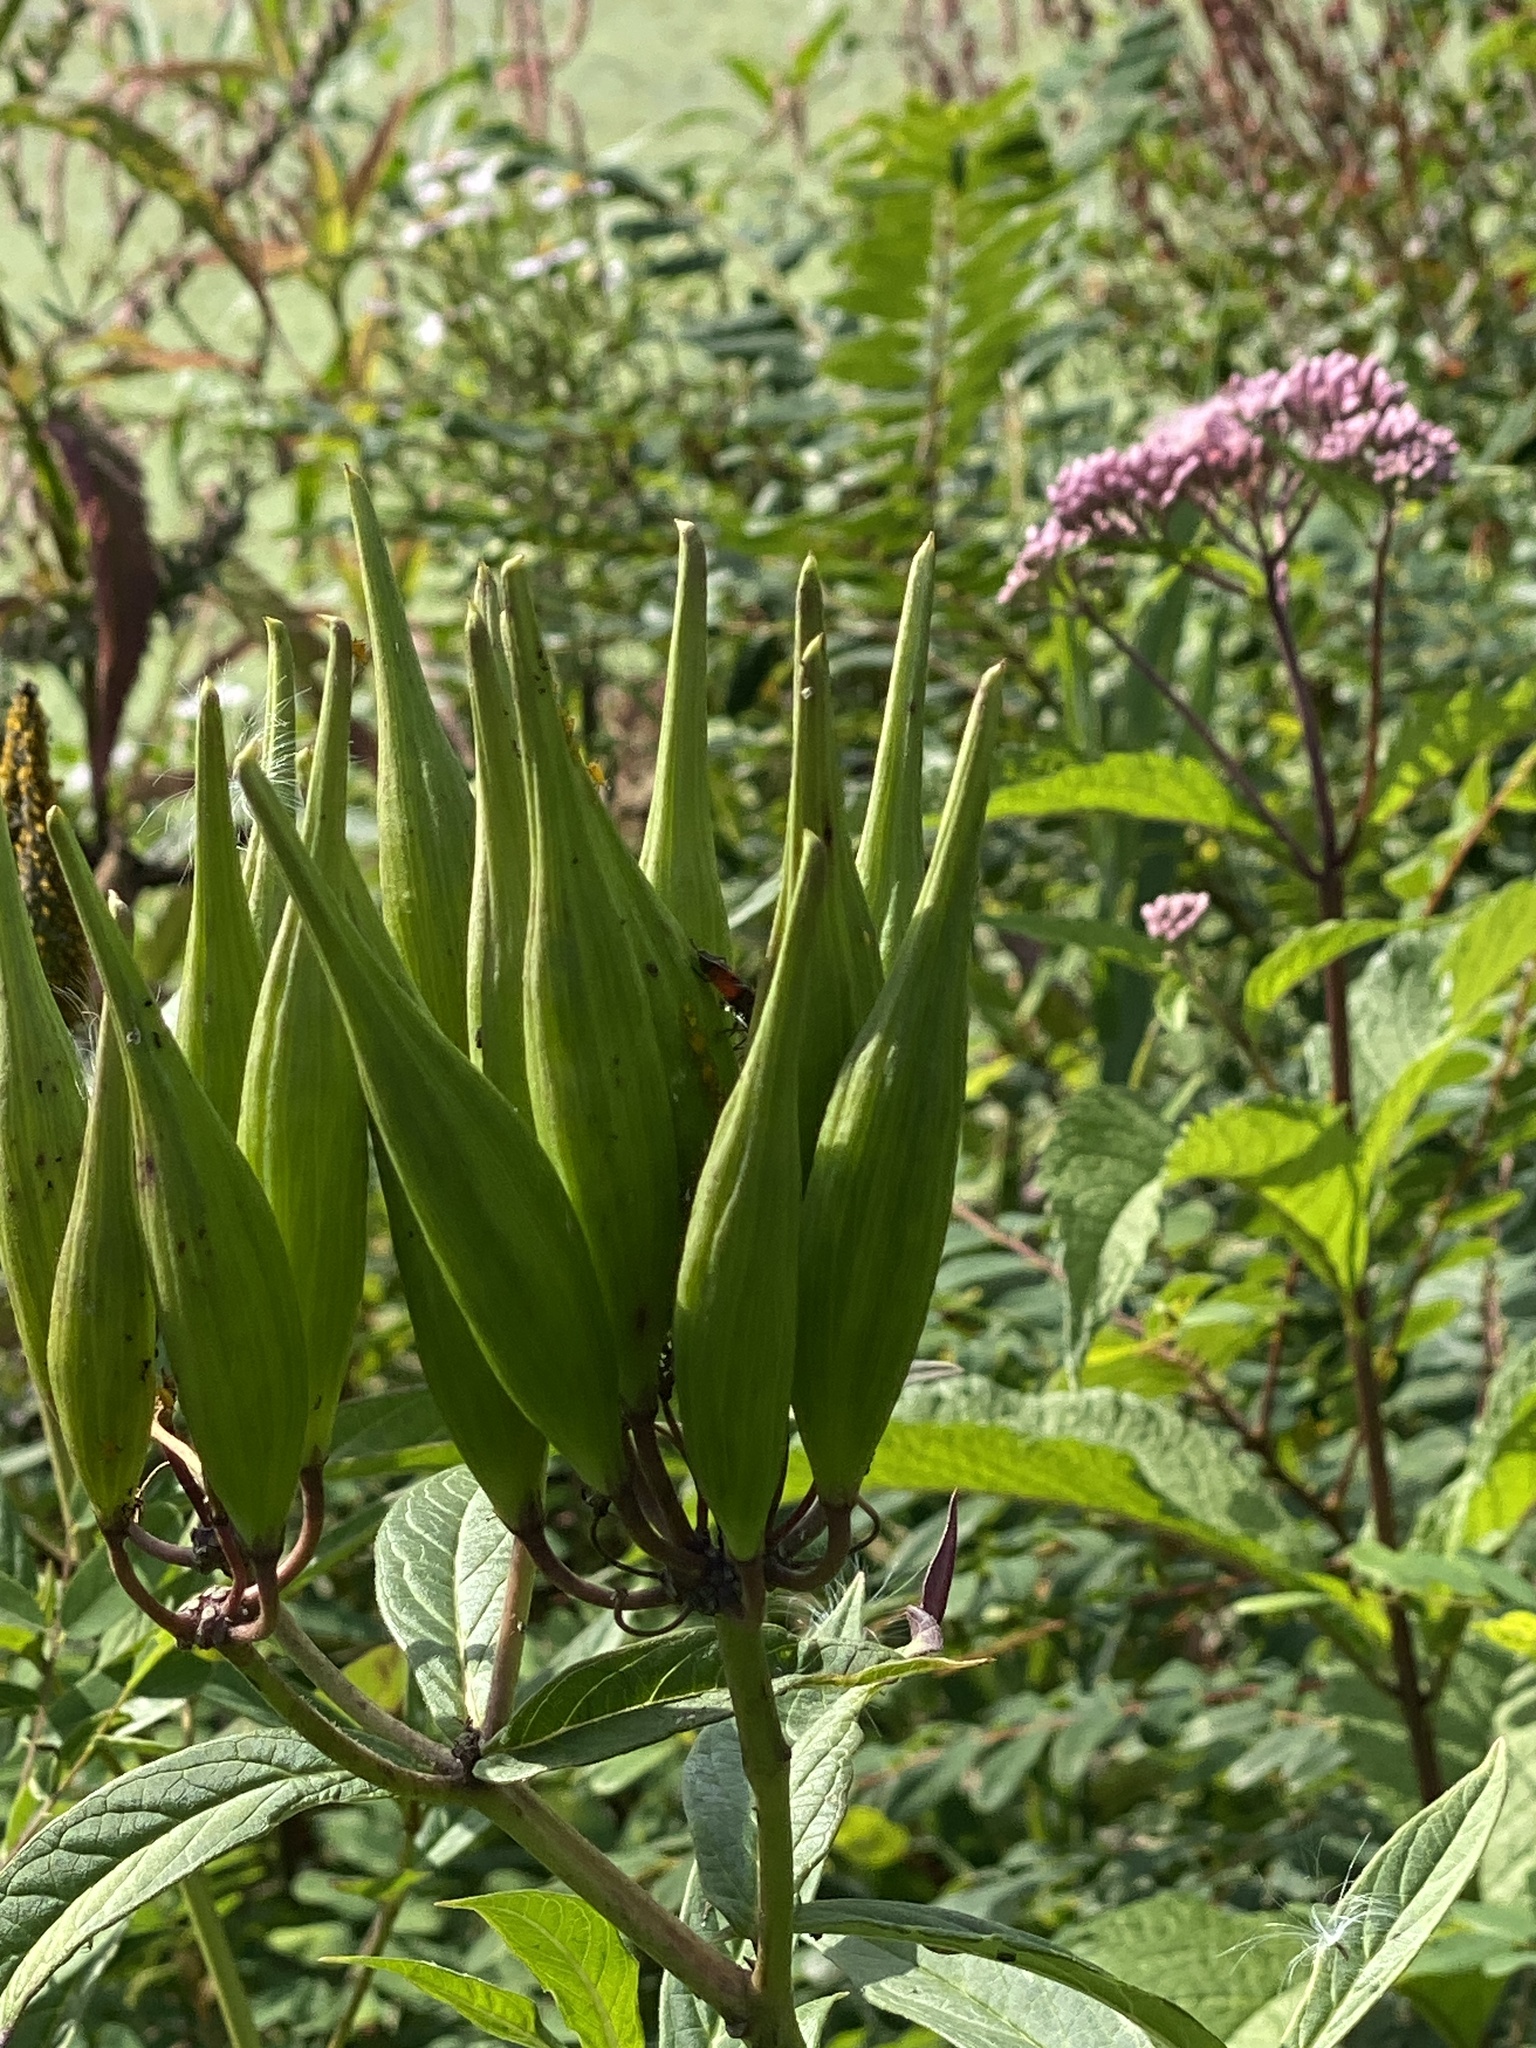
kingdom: Plantae
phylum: Tracheophyta
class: Magnoliopsida
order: Gentianales
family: Apocynaceae
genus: Asclepias
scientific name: Asclepias incarnata
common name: Swamp milkweed
